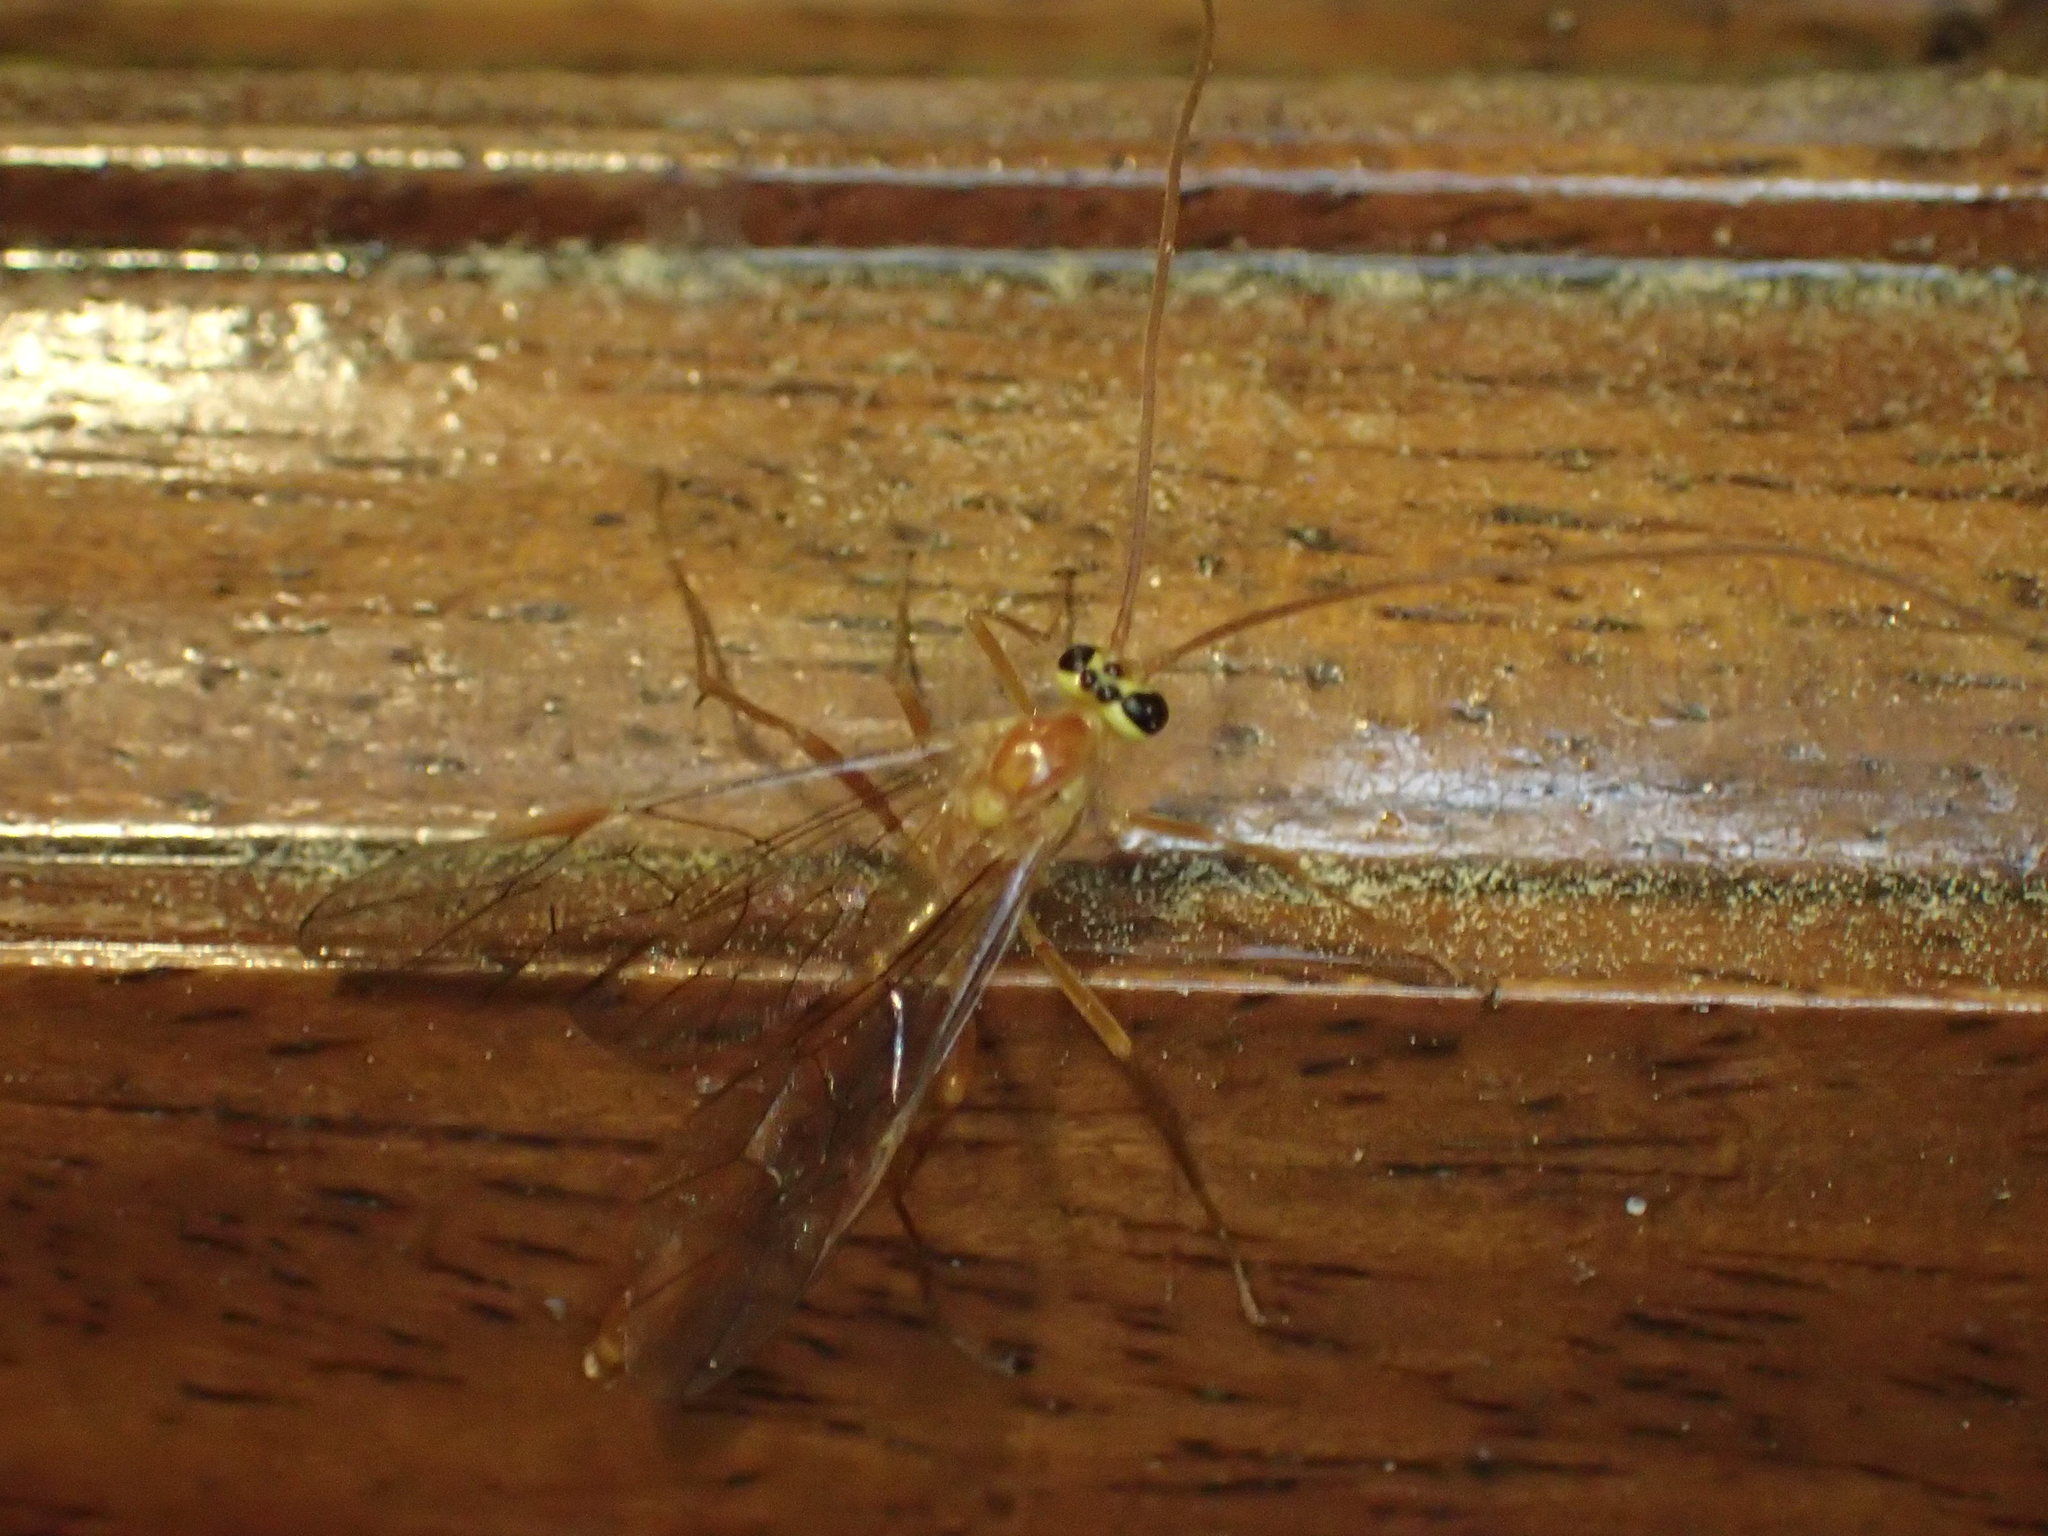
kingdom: Animalia
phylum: Arthropoda
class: Insecta
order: Hymenoptera
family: Ichneumonidae
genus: Ophion
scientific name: Ophion
